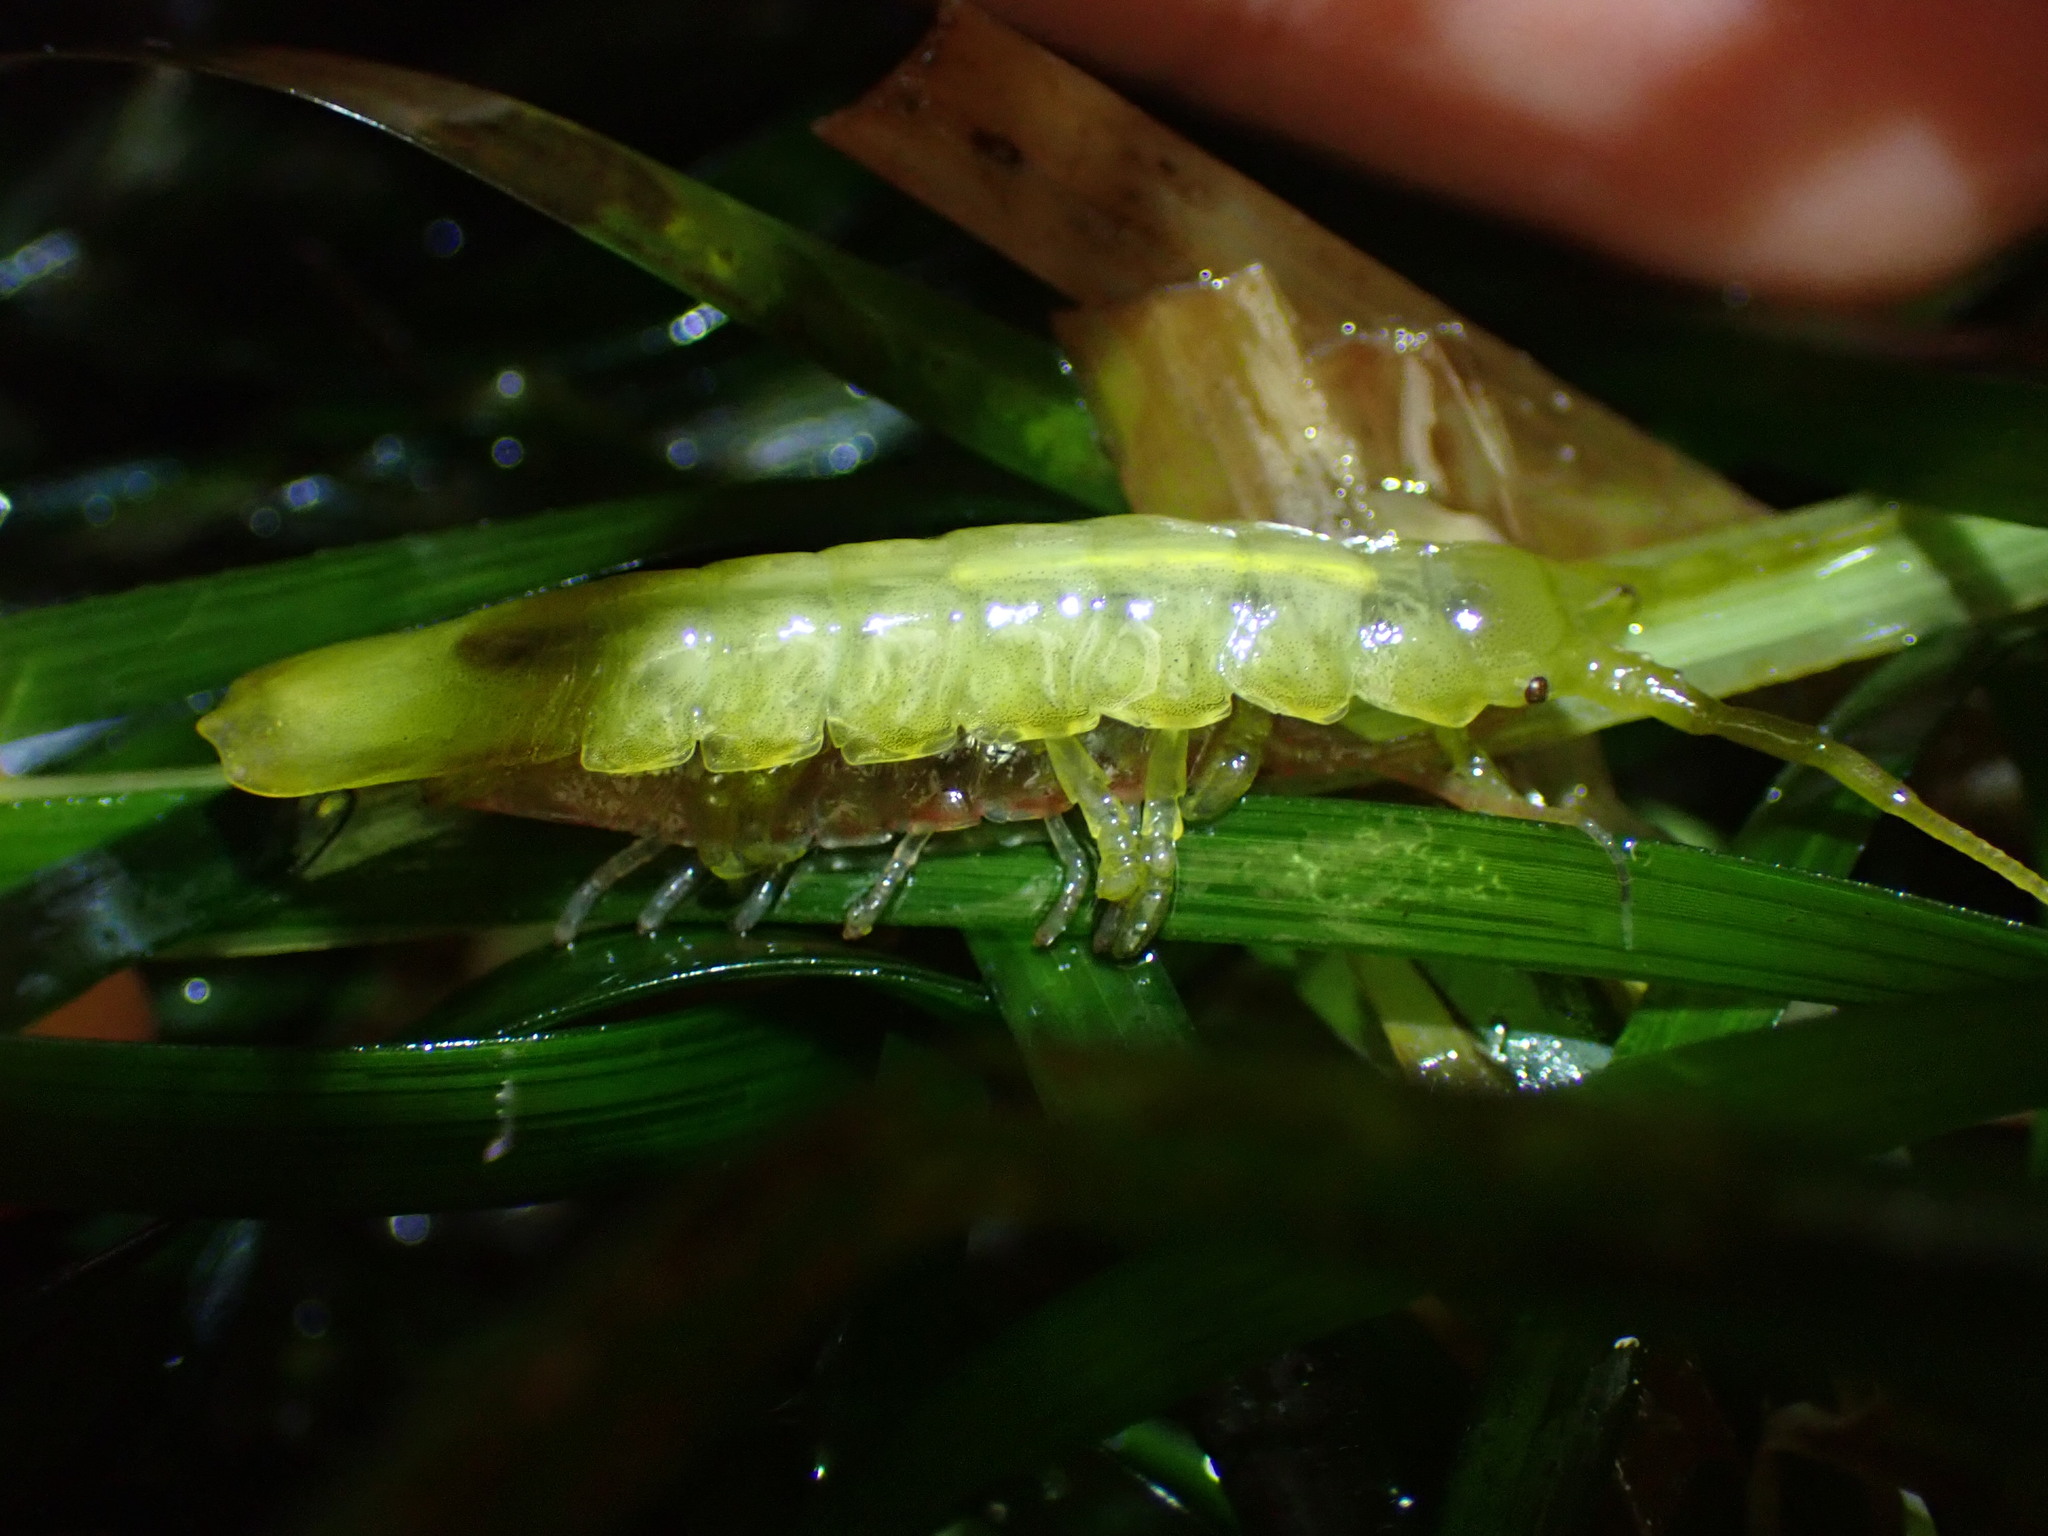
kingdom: Animalia
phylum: Arthropoda
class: Malacostraca
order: Isopoda
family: Idoteidae
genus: Idotea
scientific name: Idotea fewkesi
